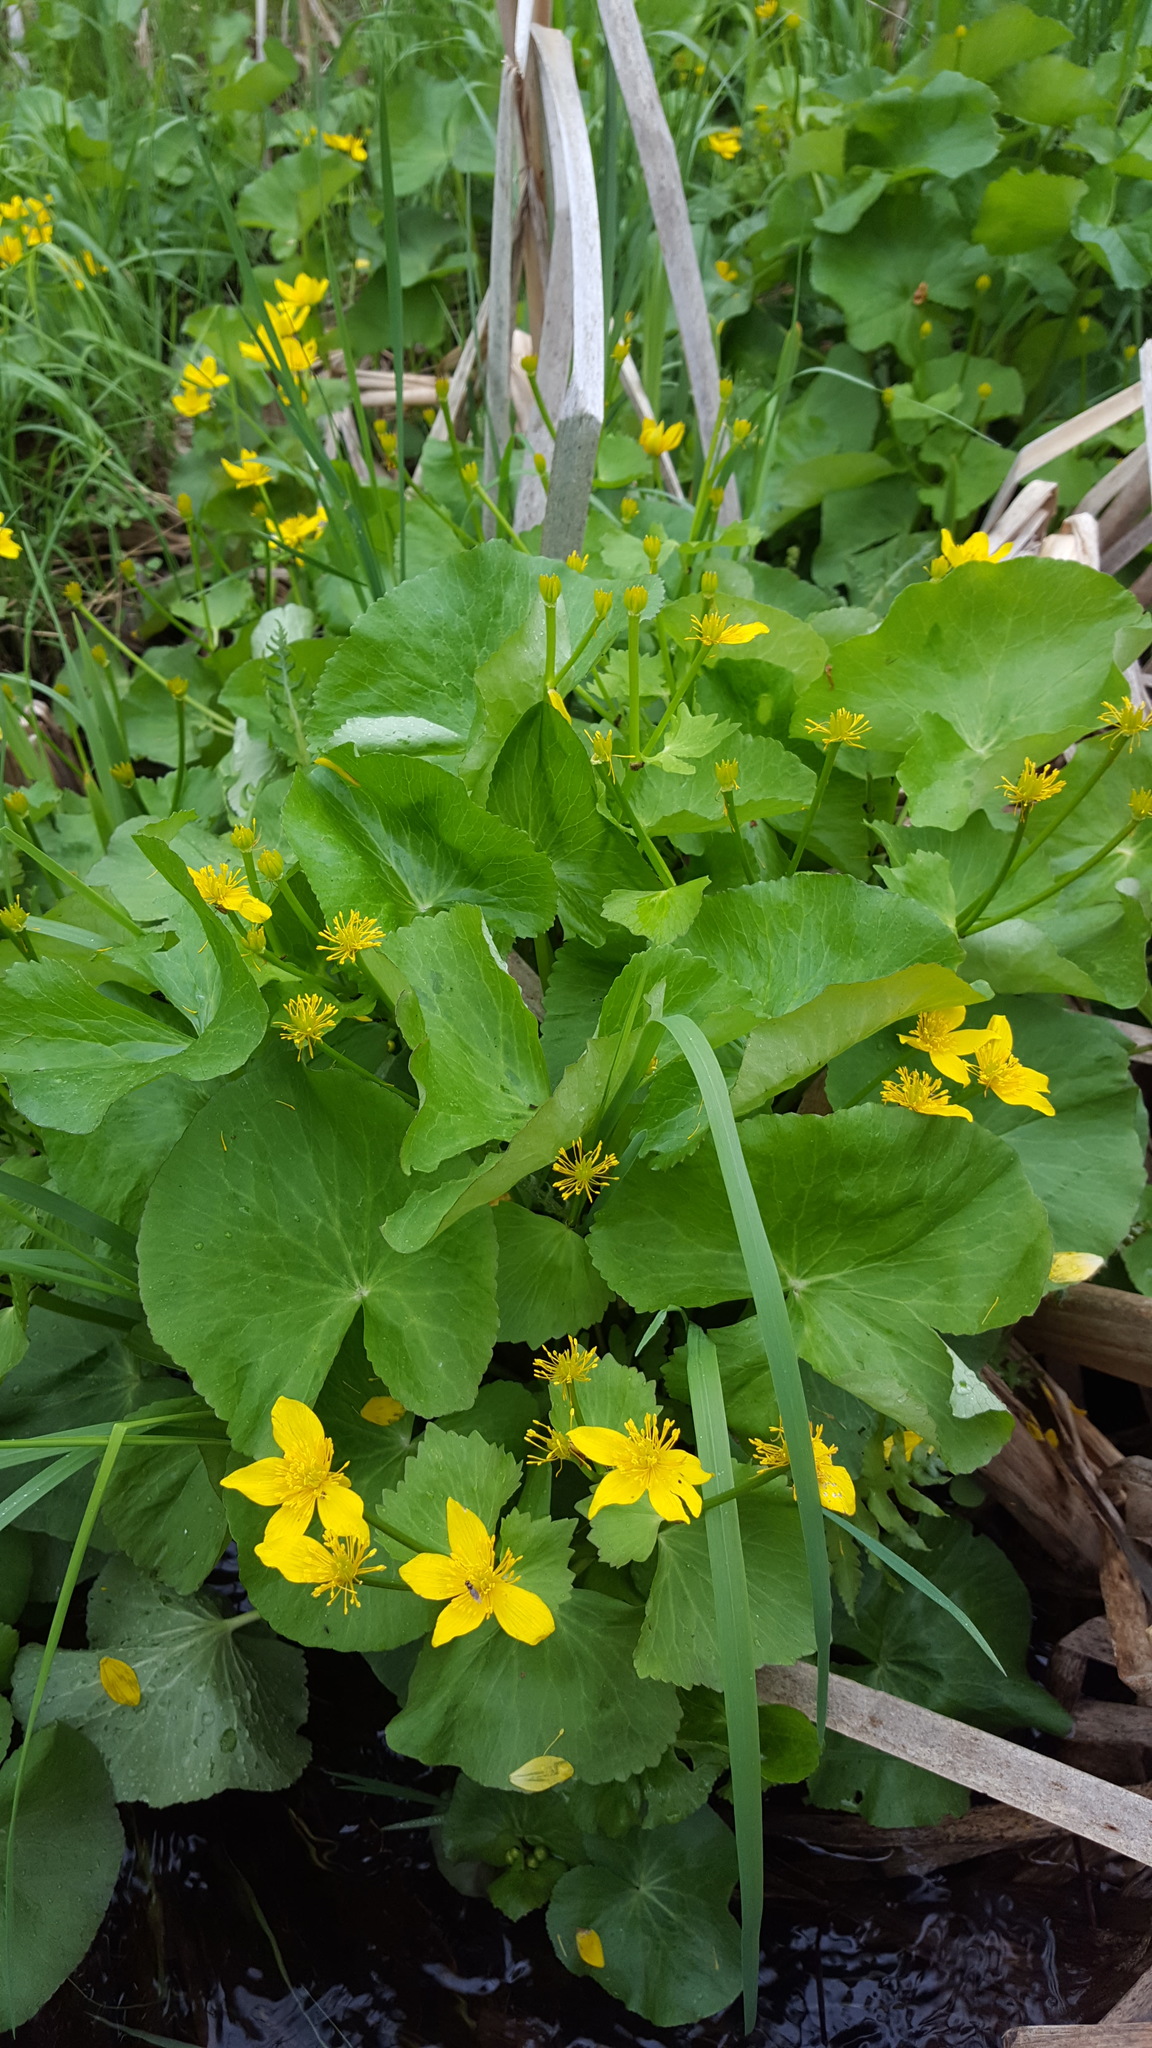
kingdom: Plantae
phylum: Tracheophyta
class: Magnoliopsida
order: Ranunculales
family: Ranunculaceae
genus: Caltha
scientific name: Caltha palustris
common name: Marsh marigold
